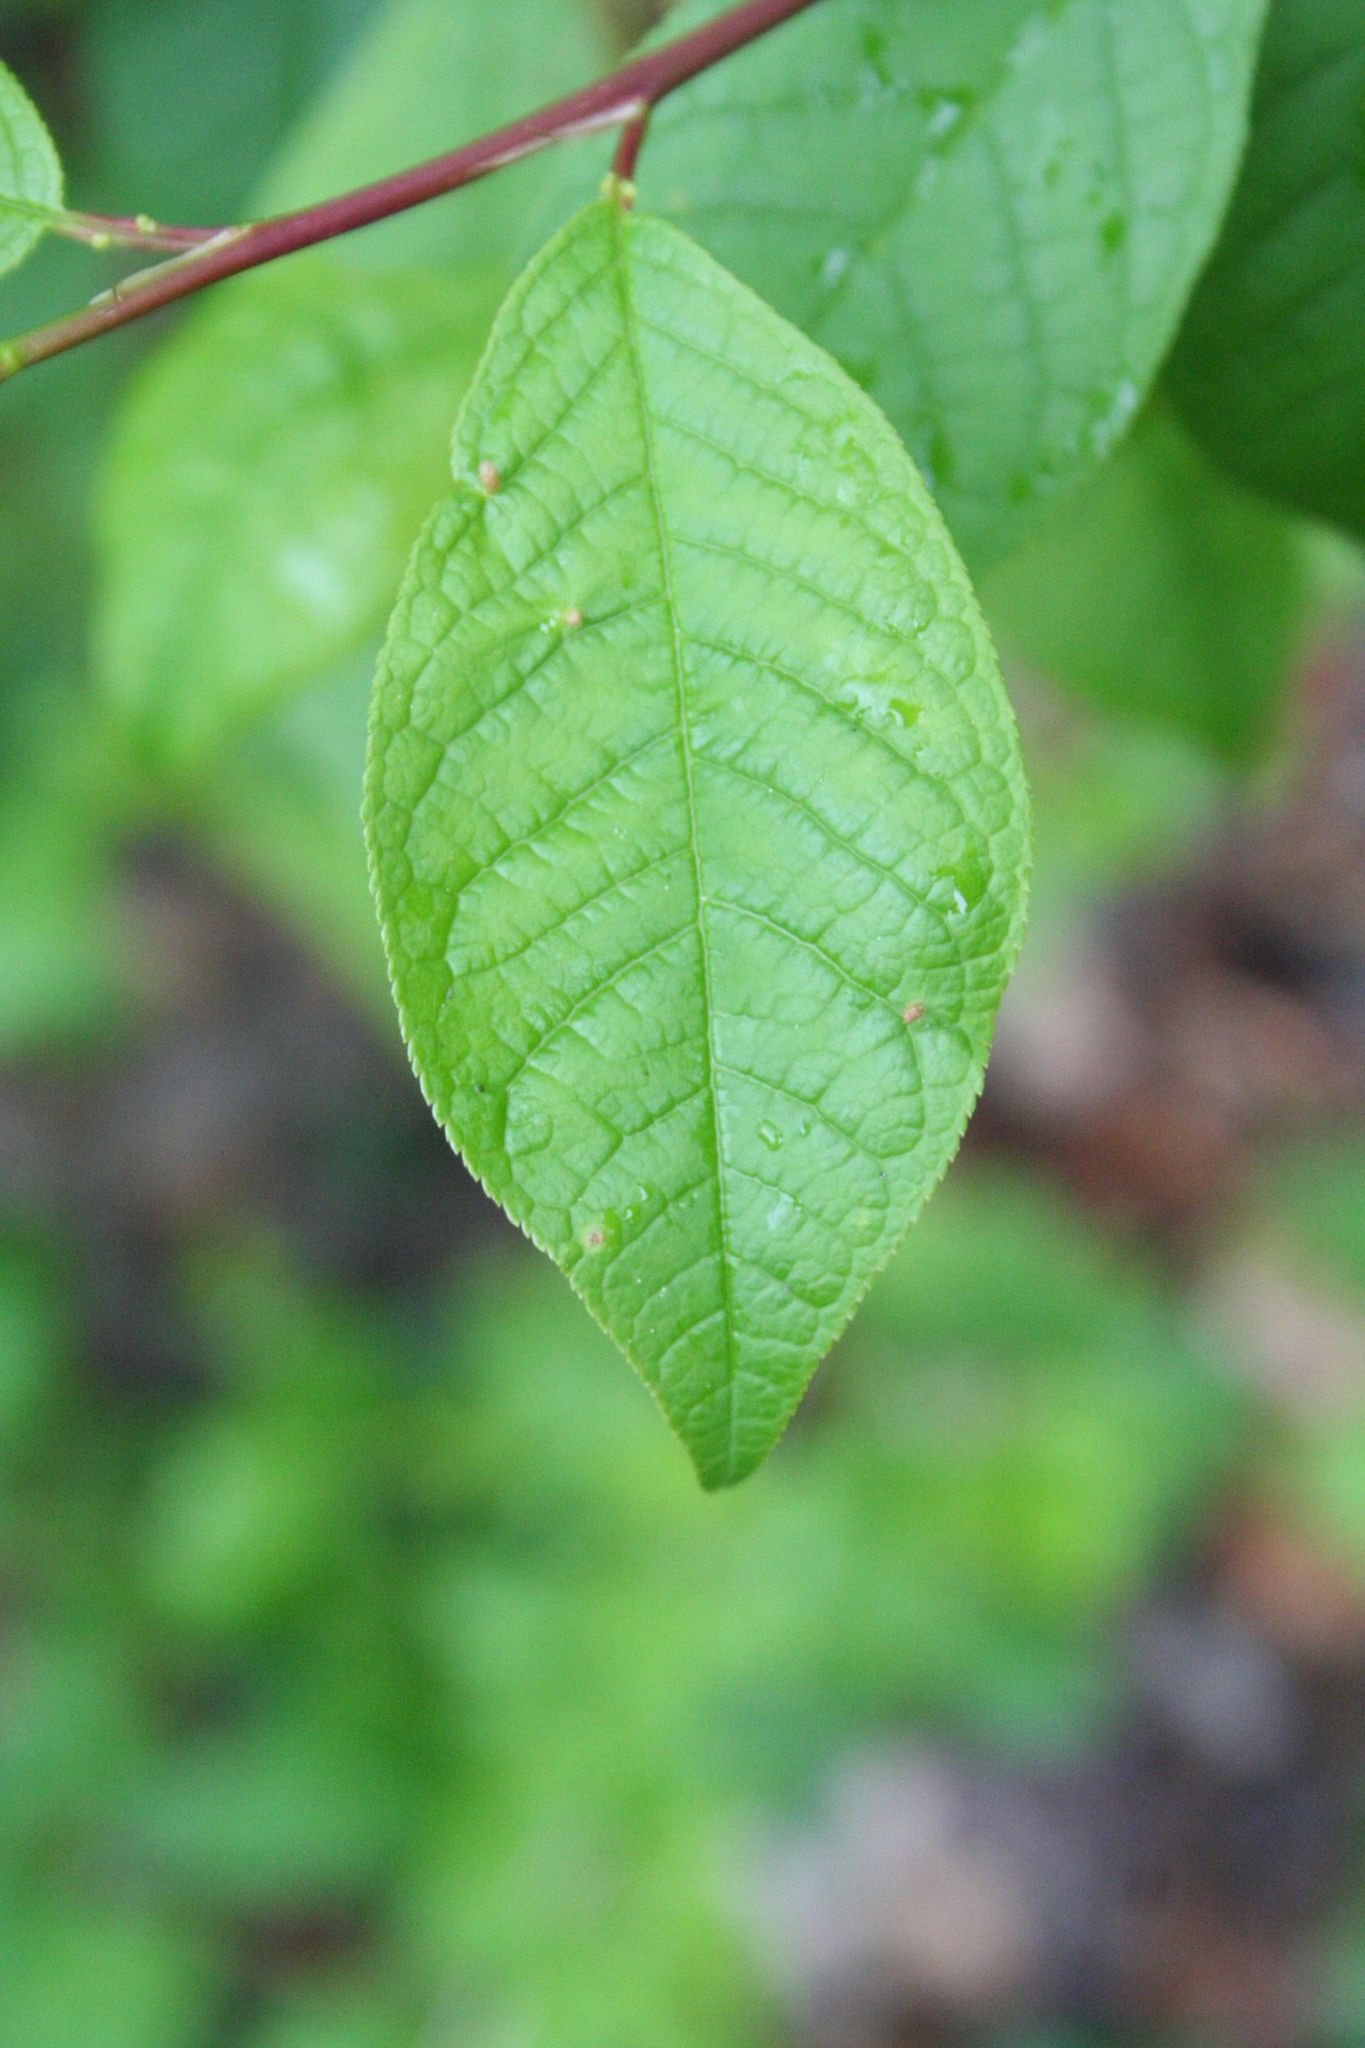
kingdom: Plantae
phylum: Tracheophyta
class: Magnoliopsida
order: Rosales
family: Rosaceae
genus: Prunus
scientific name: Prunus padus
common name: Bird cherry
